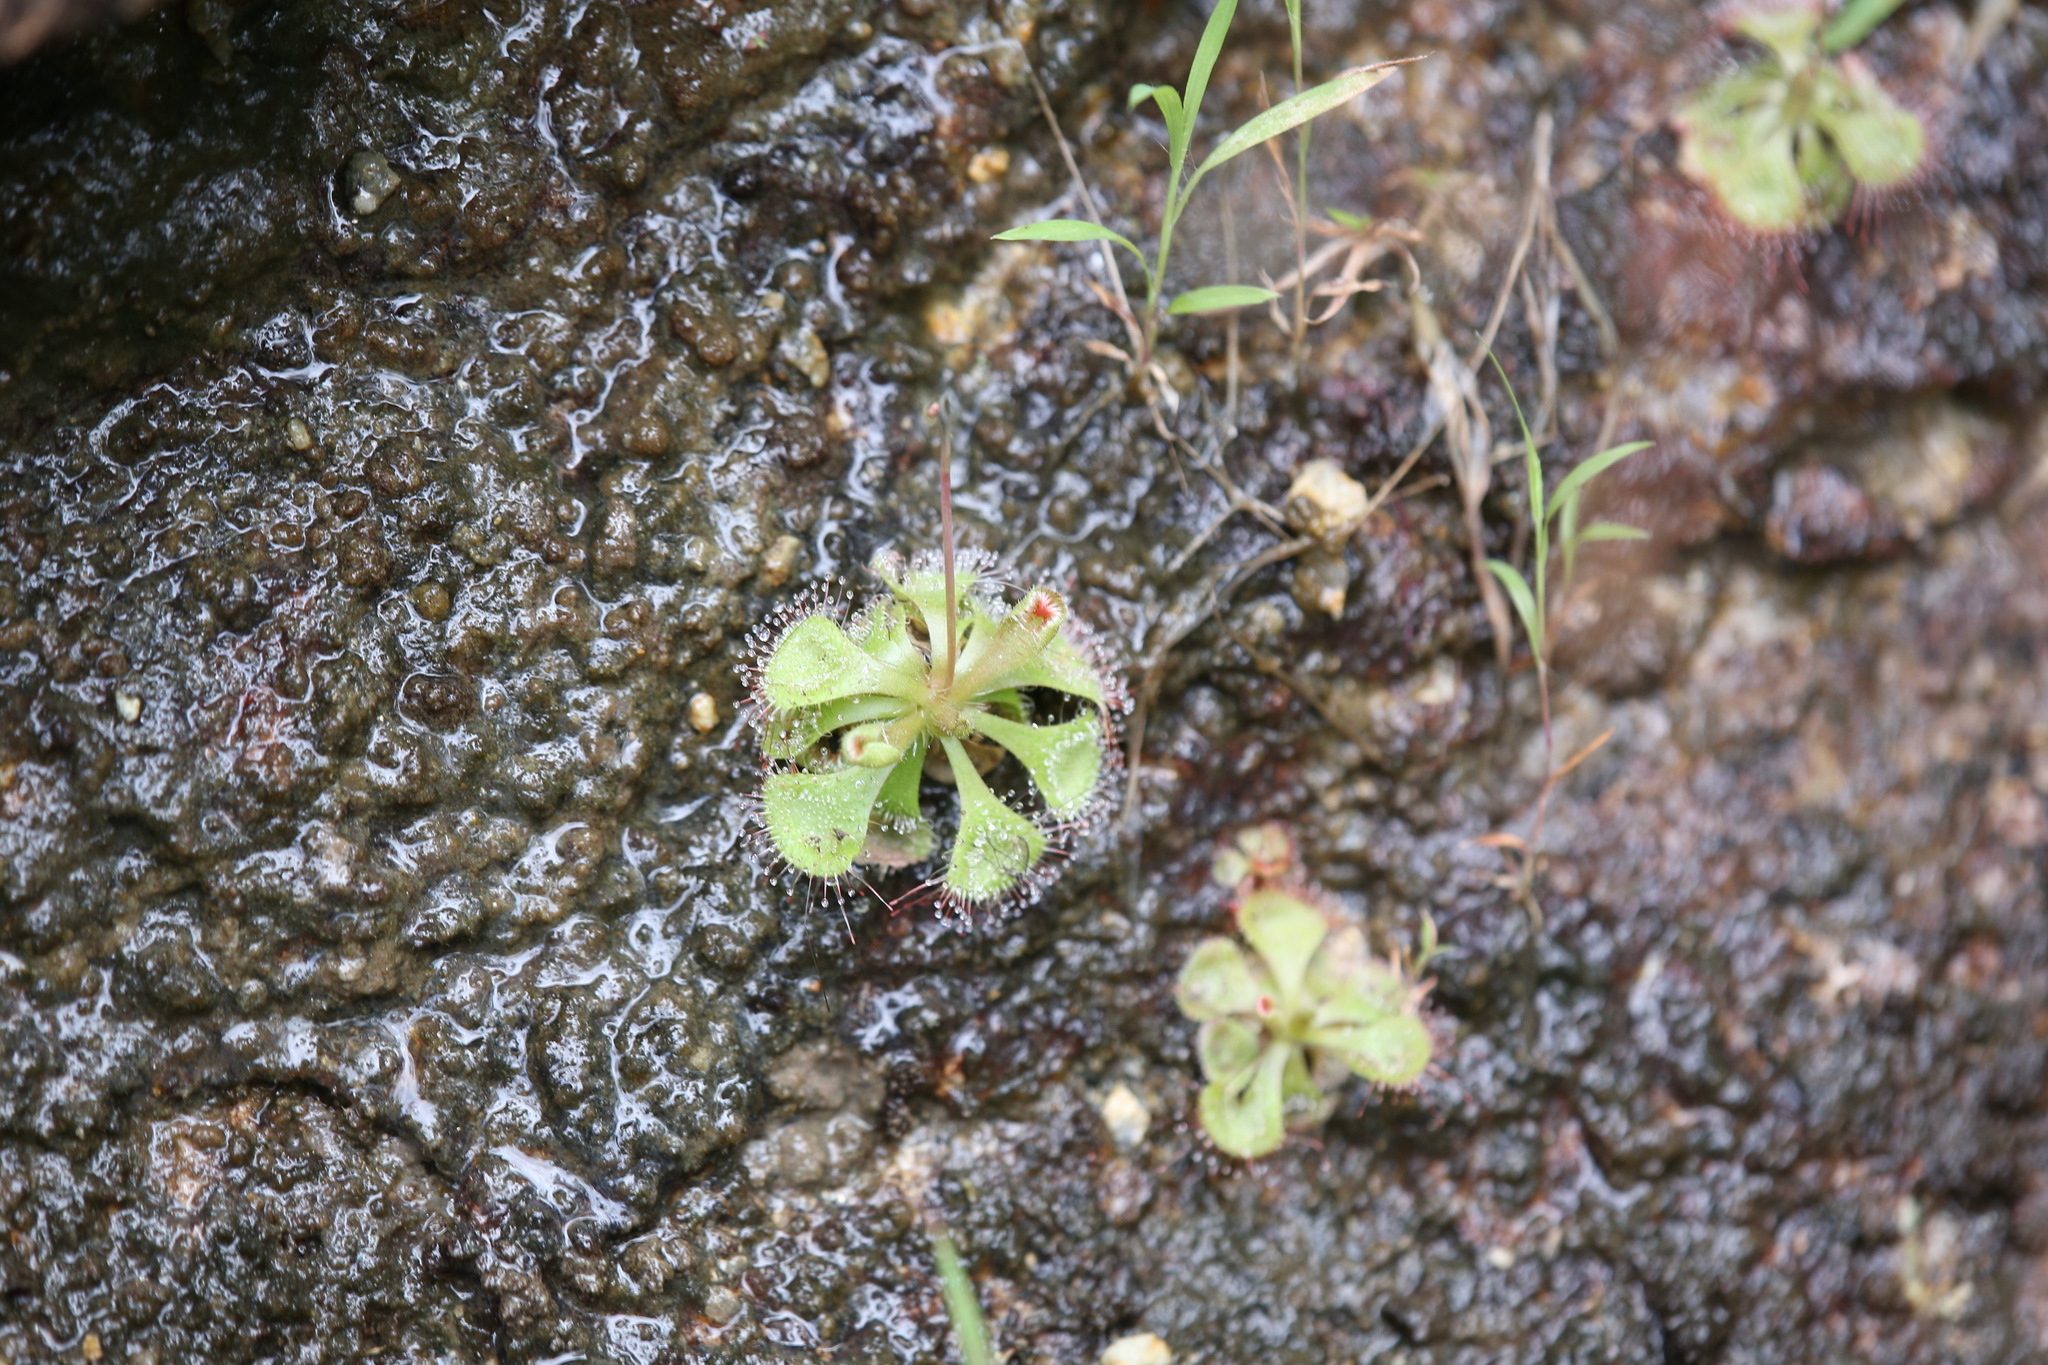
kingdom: Plantae
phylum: Tracheophyta
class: Magnoliopsida
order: Caryophyllales
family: Droseraceae
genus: Drosera
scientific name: Drosera spatulata
